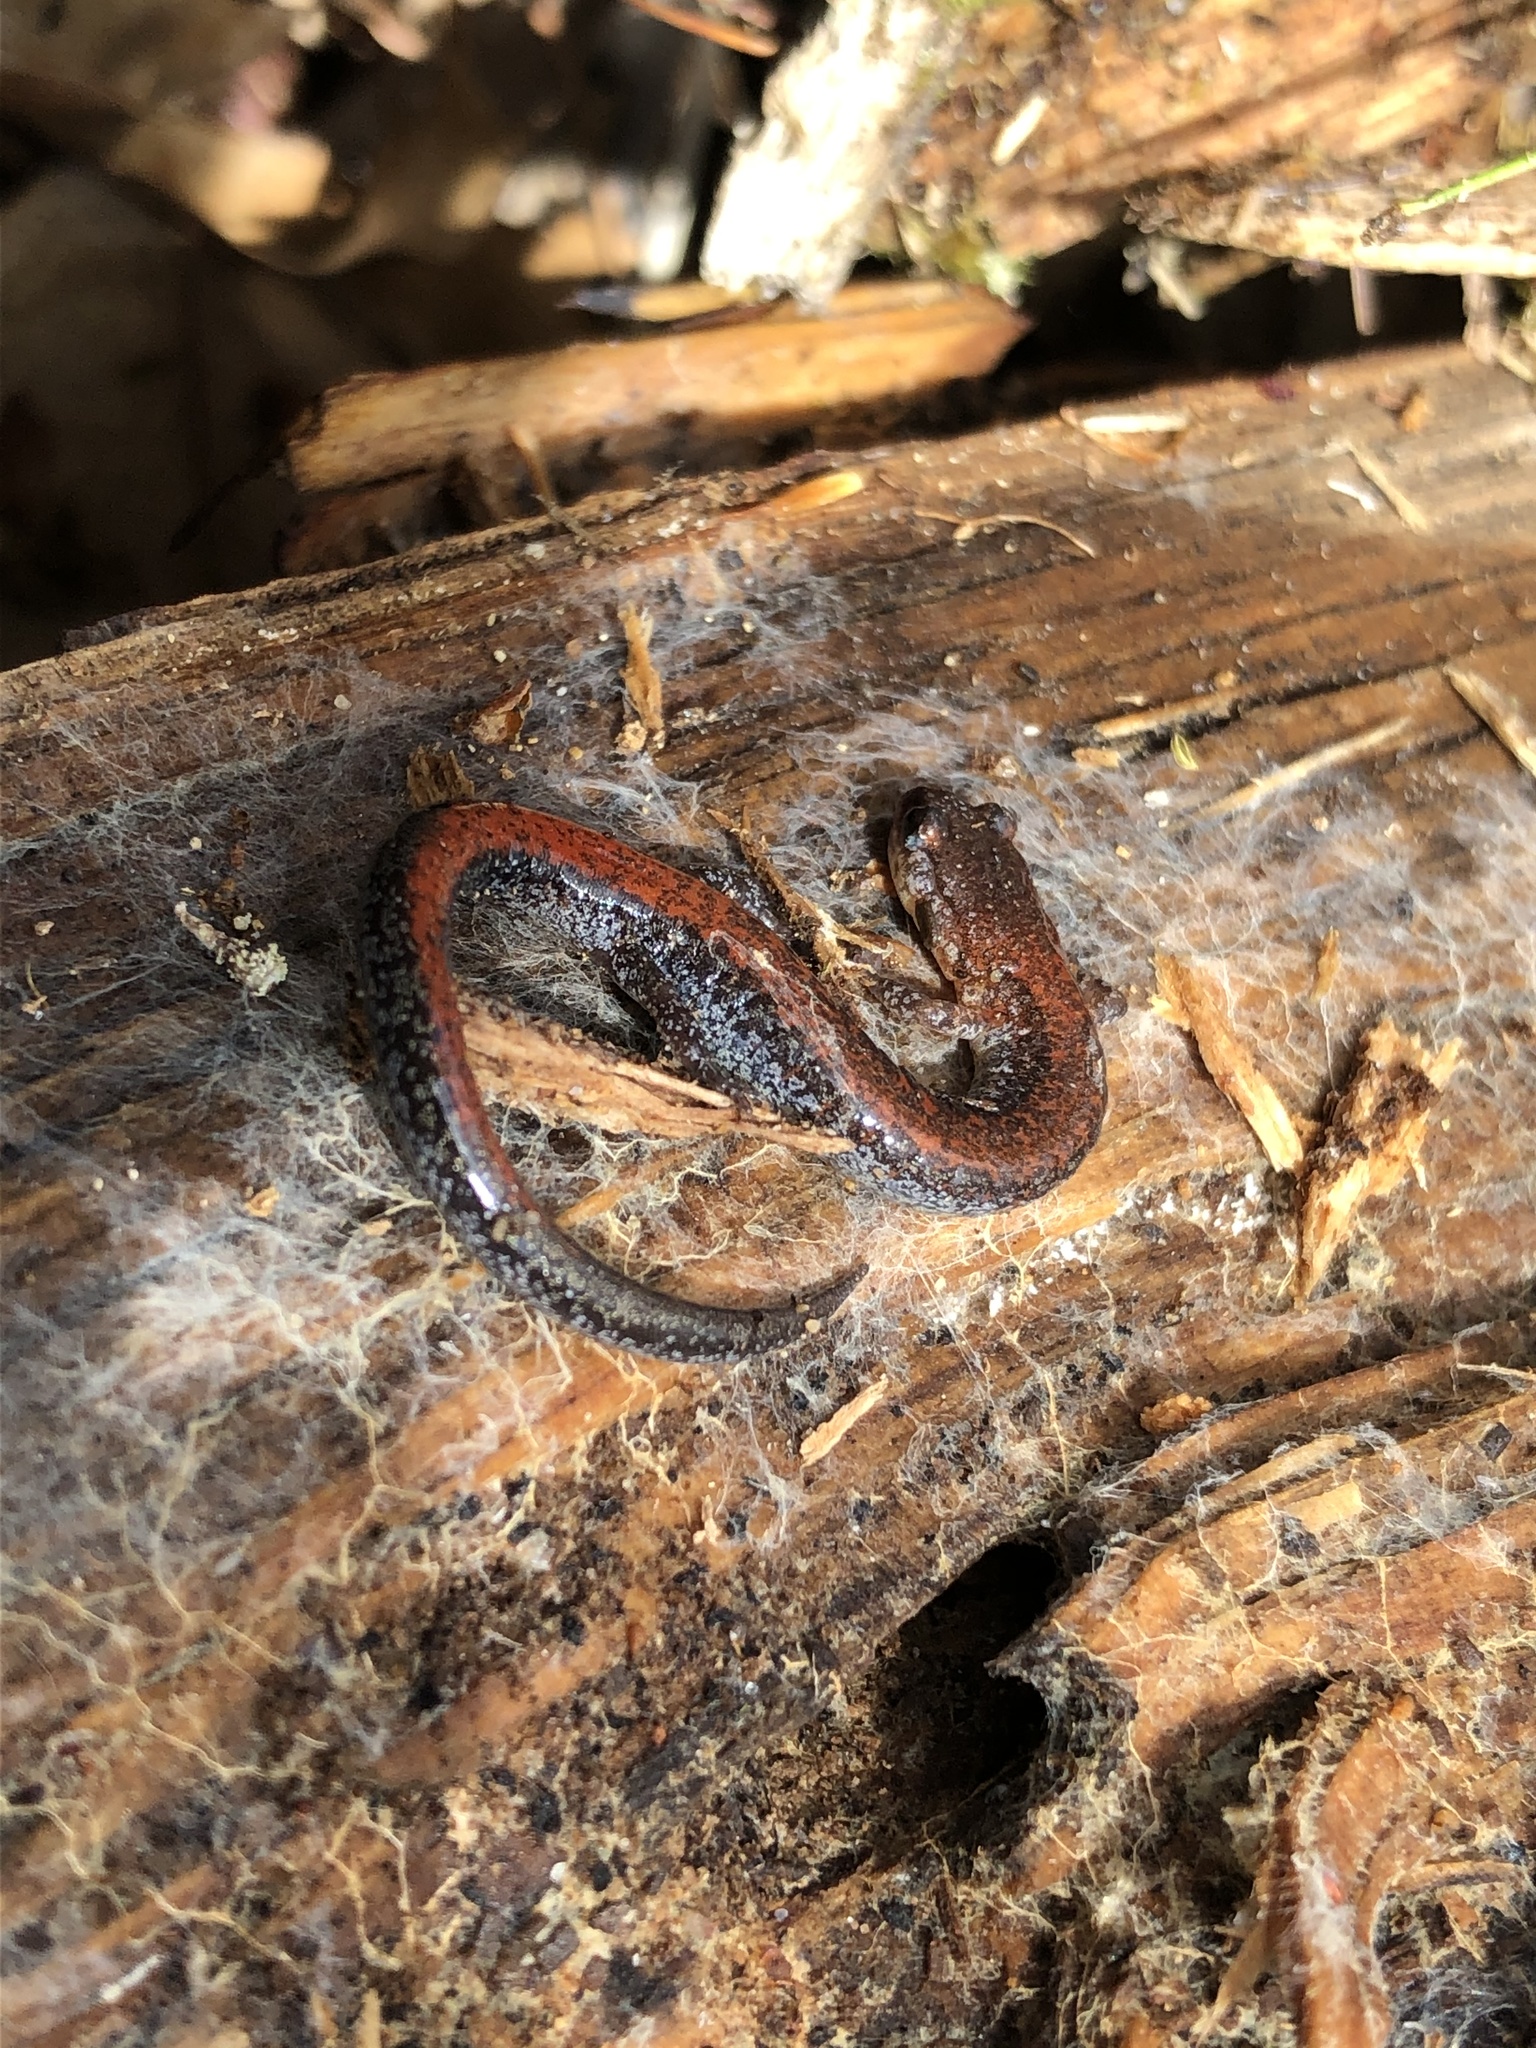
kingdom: Animalia
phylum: Chordata
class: Amphibia
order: Caudata
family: Plethodontidae
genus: Plethodon
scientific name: Plethodon cinereus
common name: Redback salamander
